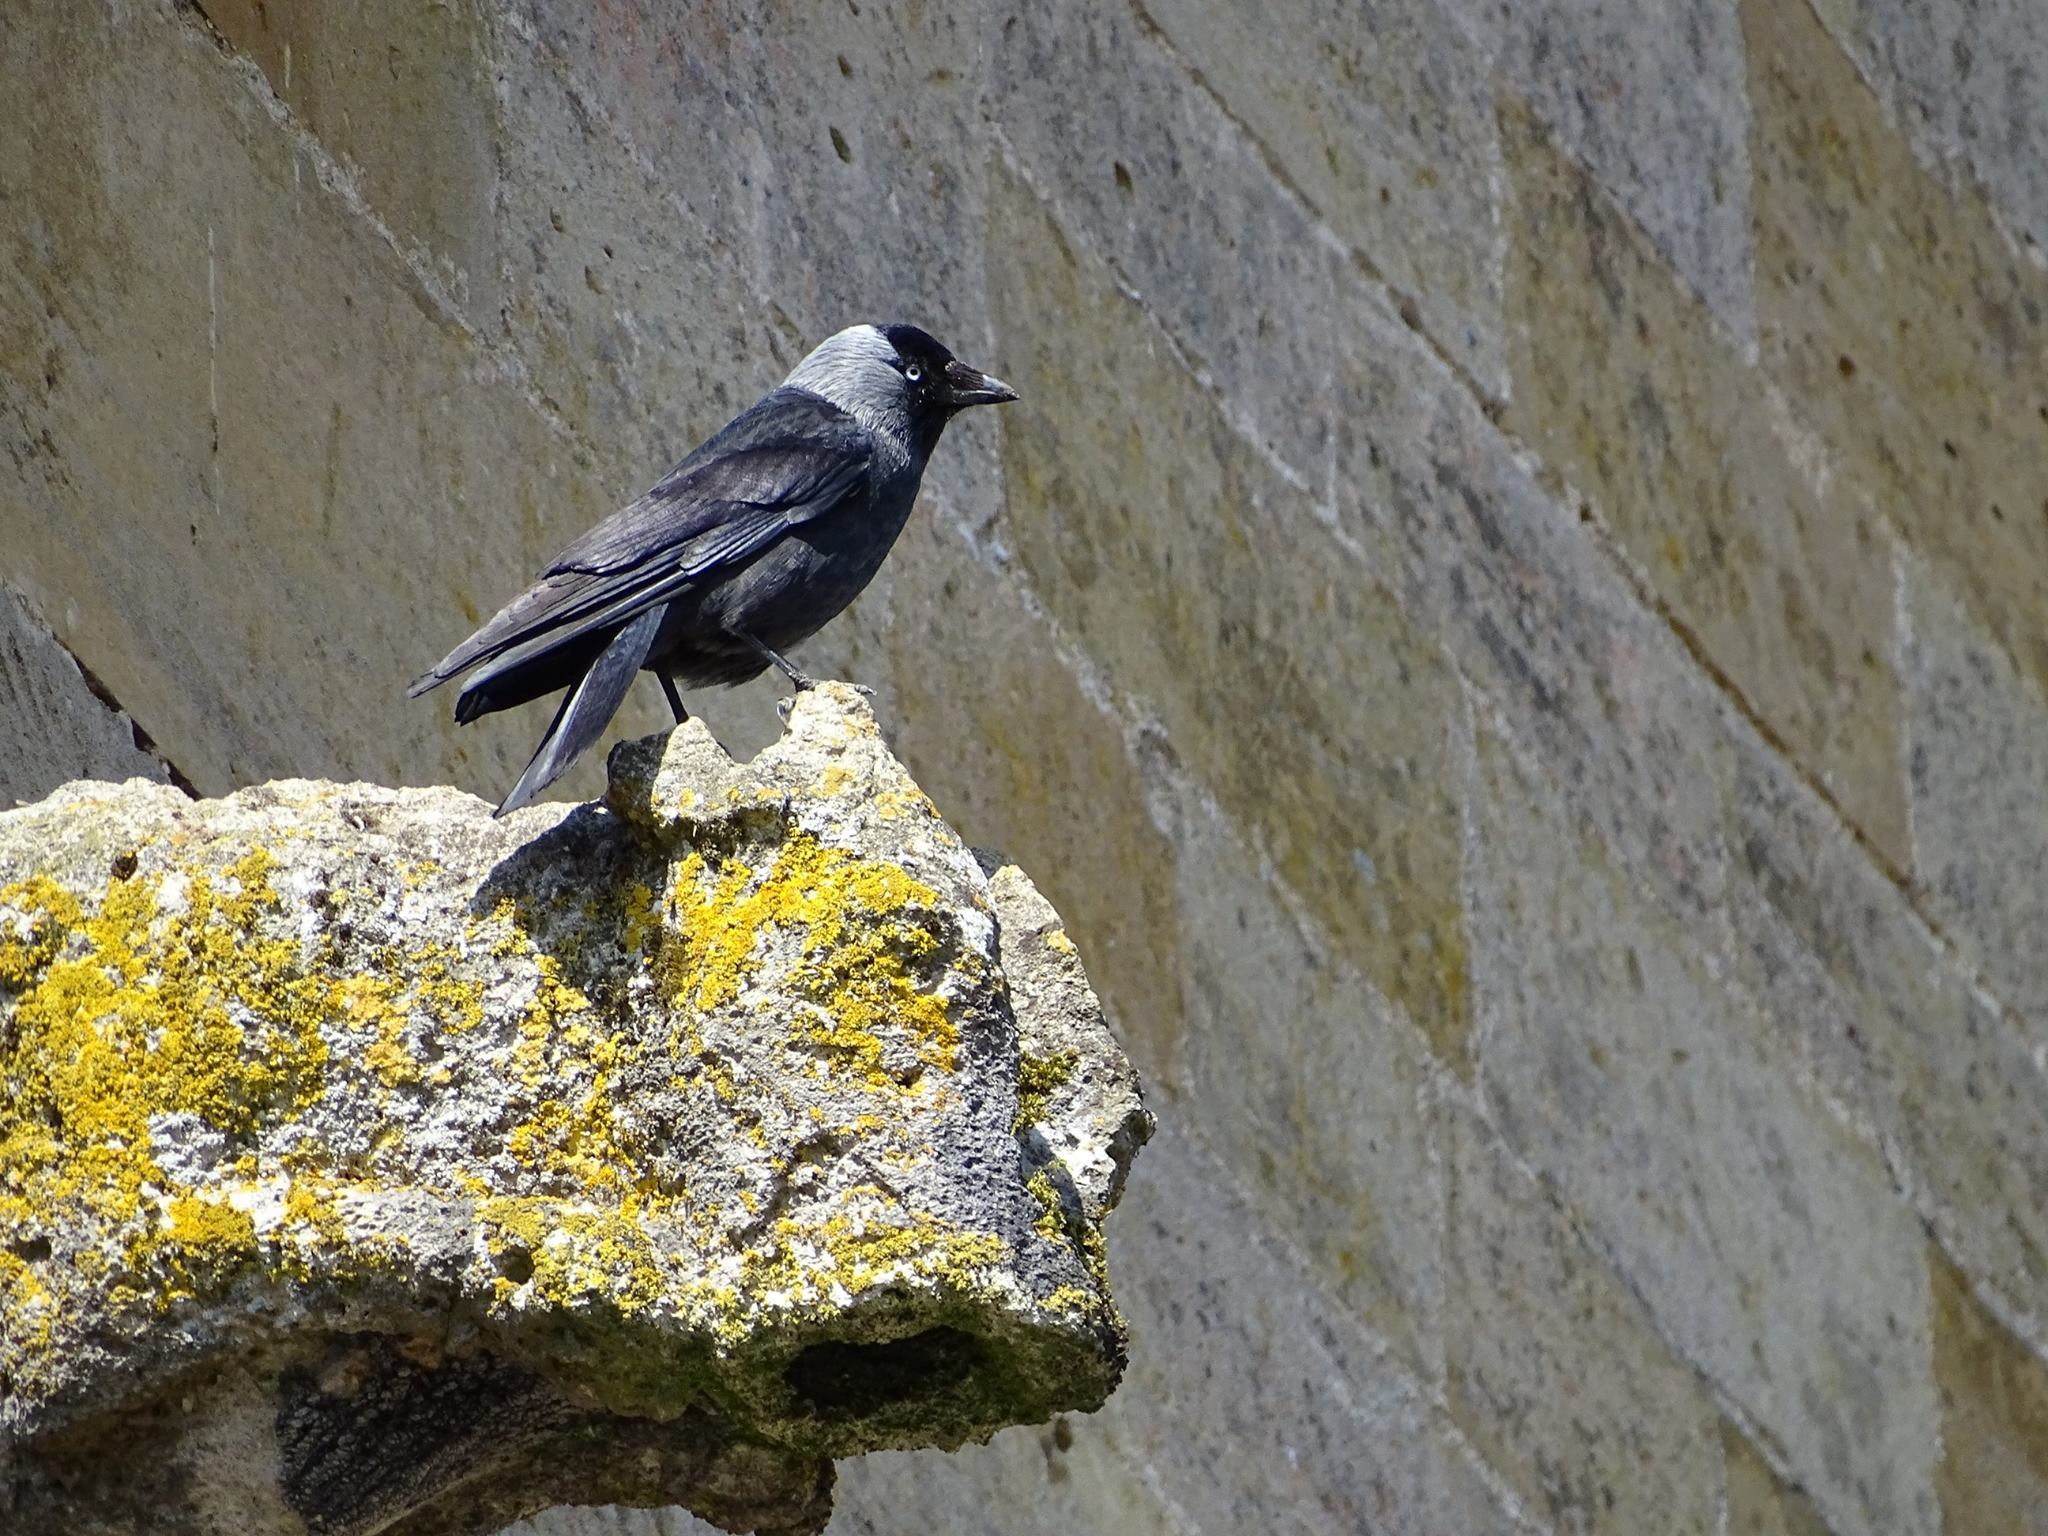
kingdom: Animalia
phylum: Chordata
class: Aves
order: Passeriformes
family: Corvidae
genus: Coloeus
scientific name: Coloeus monedula
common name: Western jackdaw
